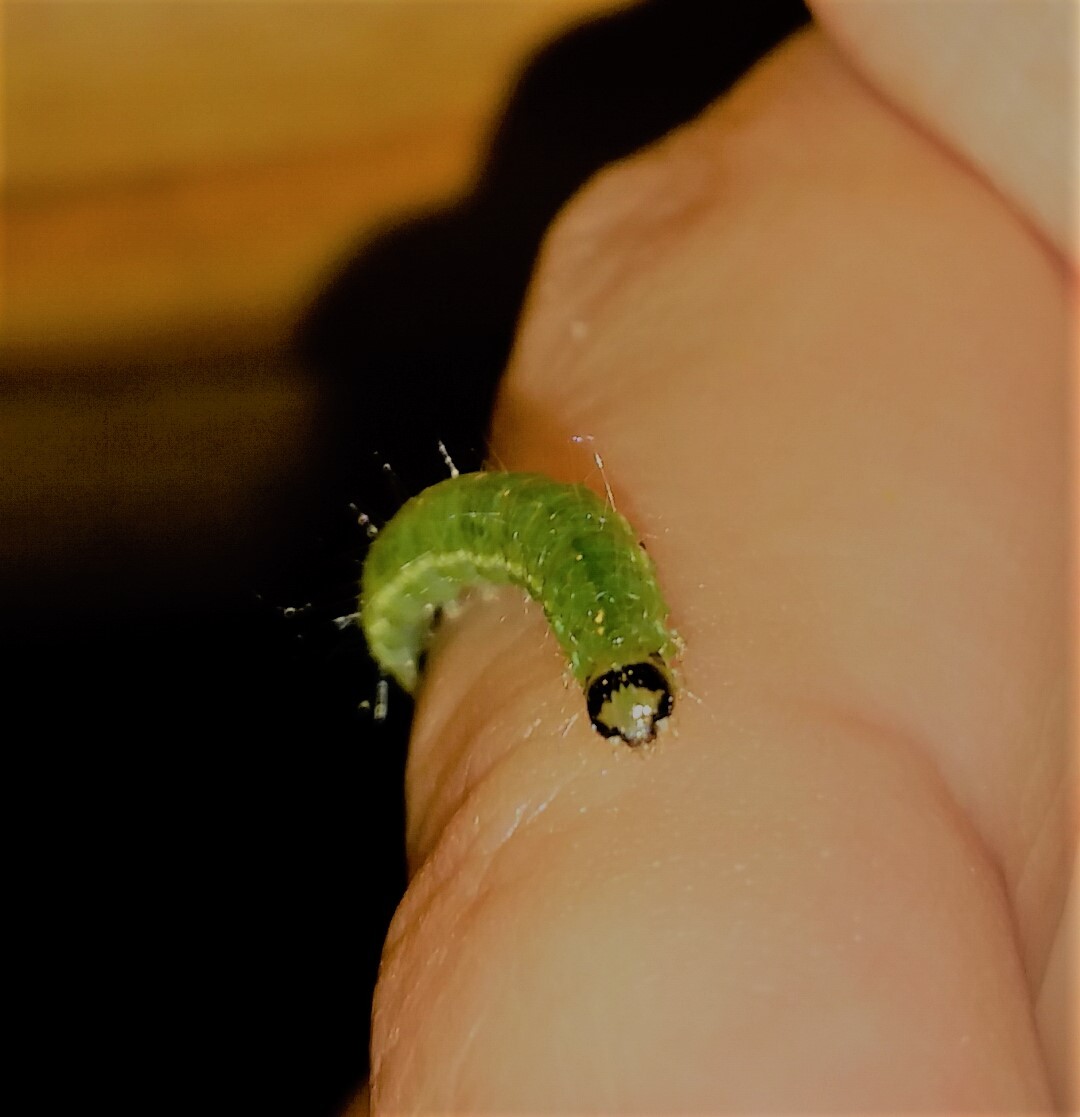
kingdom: Animalia
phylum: Arthropoda
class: Insecta
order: Lepidoptera
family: Crambidae
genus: Condylorrhiza
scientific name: Condylorrhiza vestigialis
